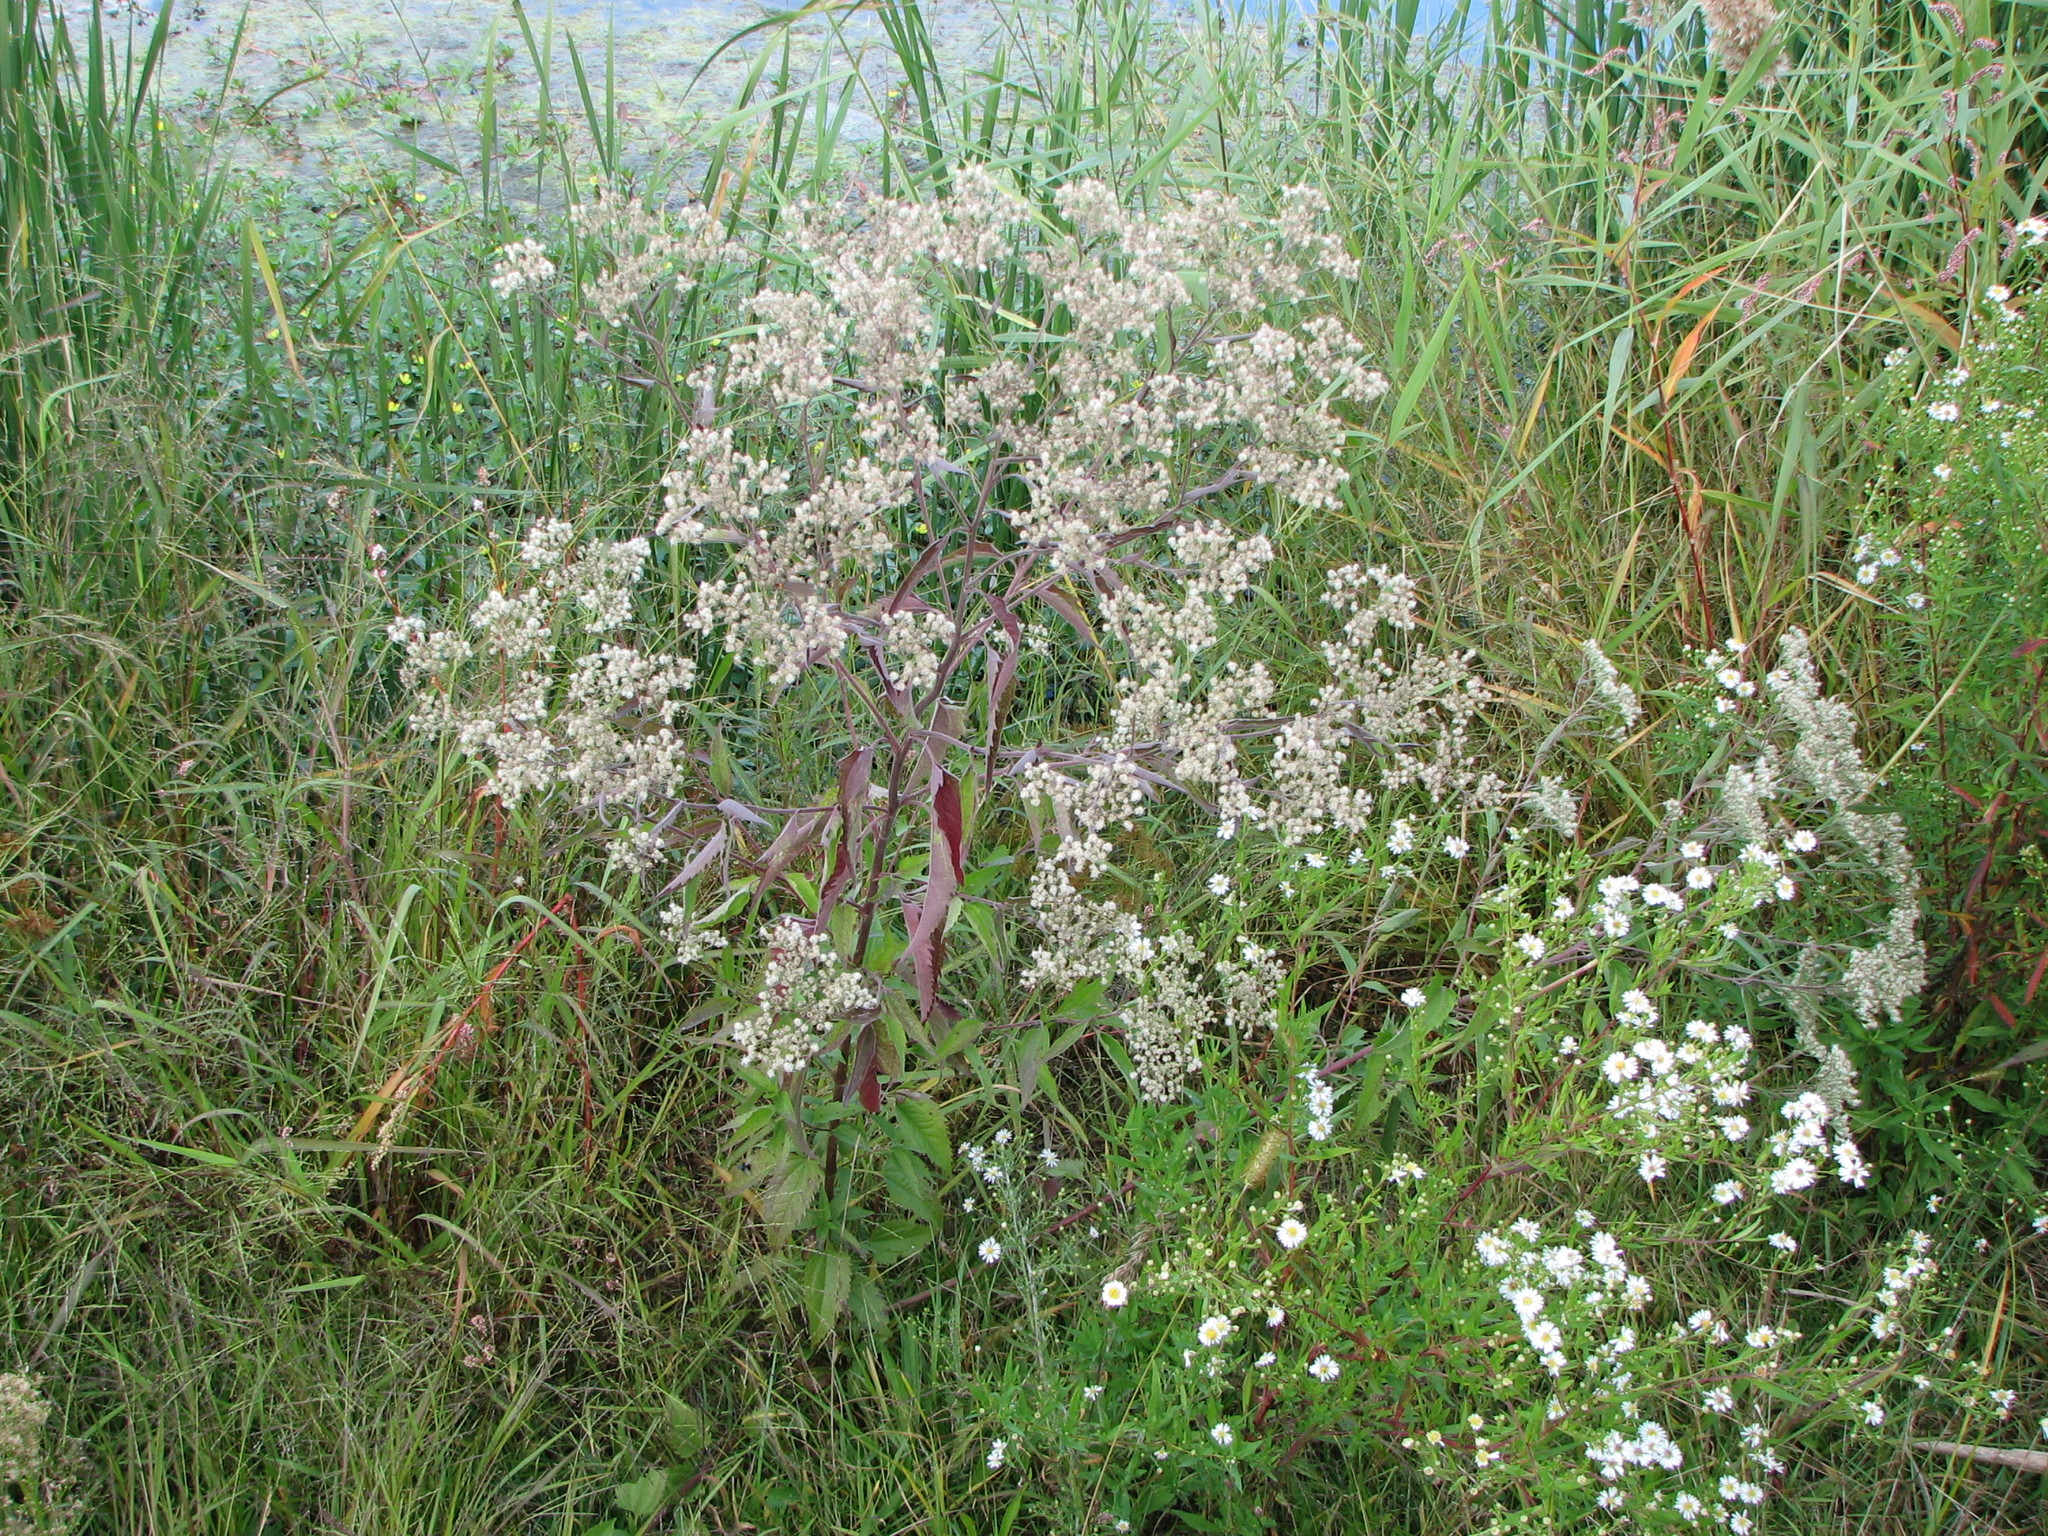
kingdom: Plantae
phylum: Tracheophyta
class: Magnoliopsida
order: Asterales
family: Asteraceae
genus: Eupatorium
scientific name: Eupatorium serotinum
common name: Late boneset
